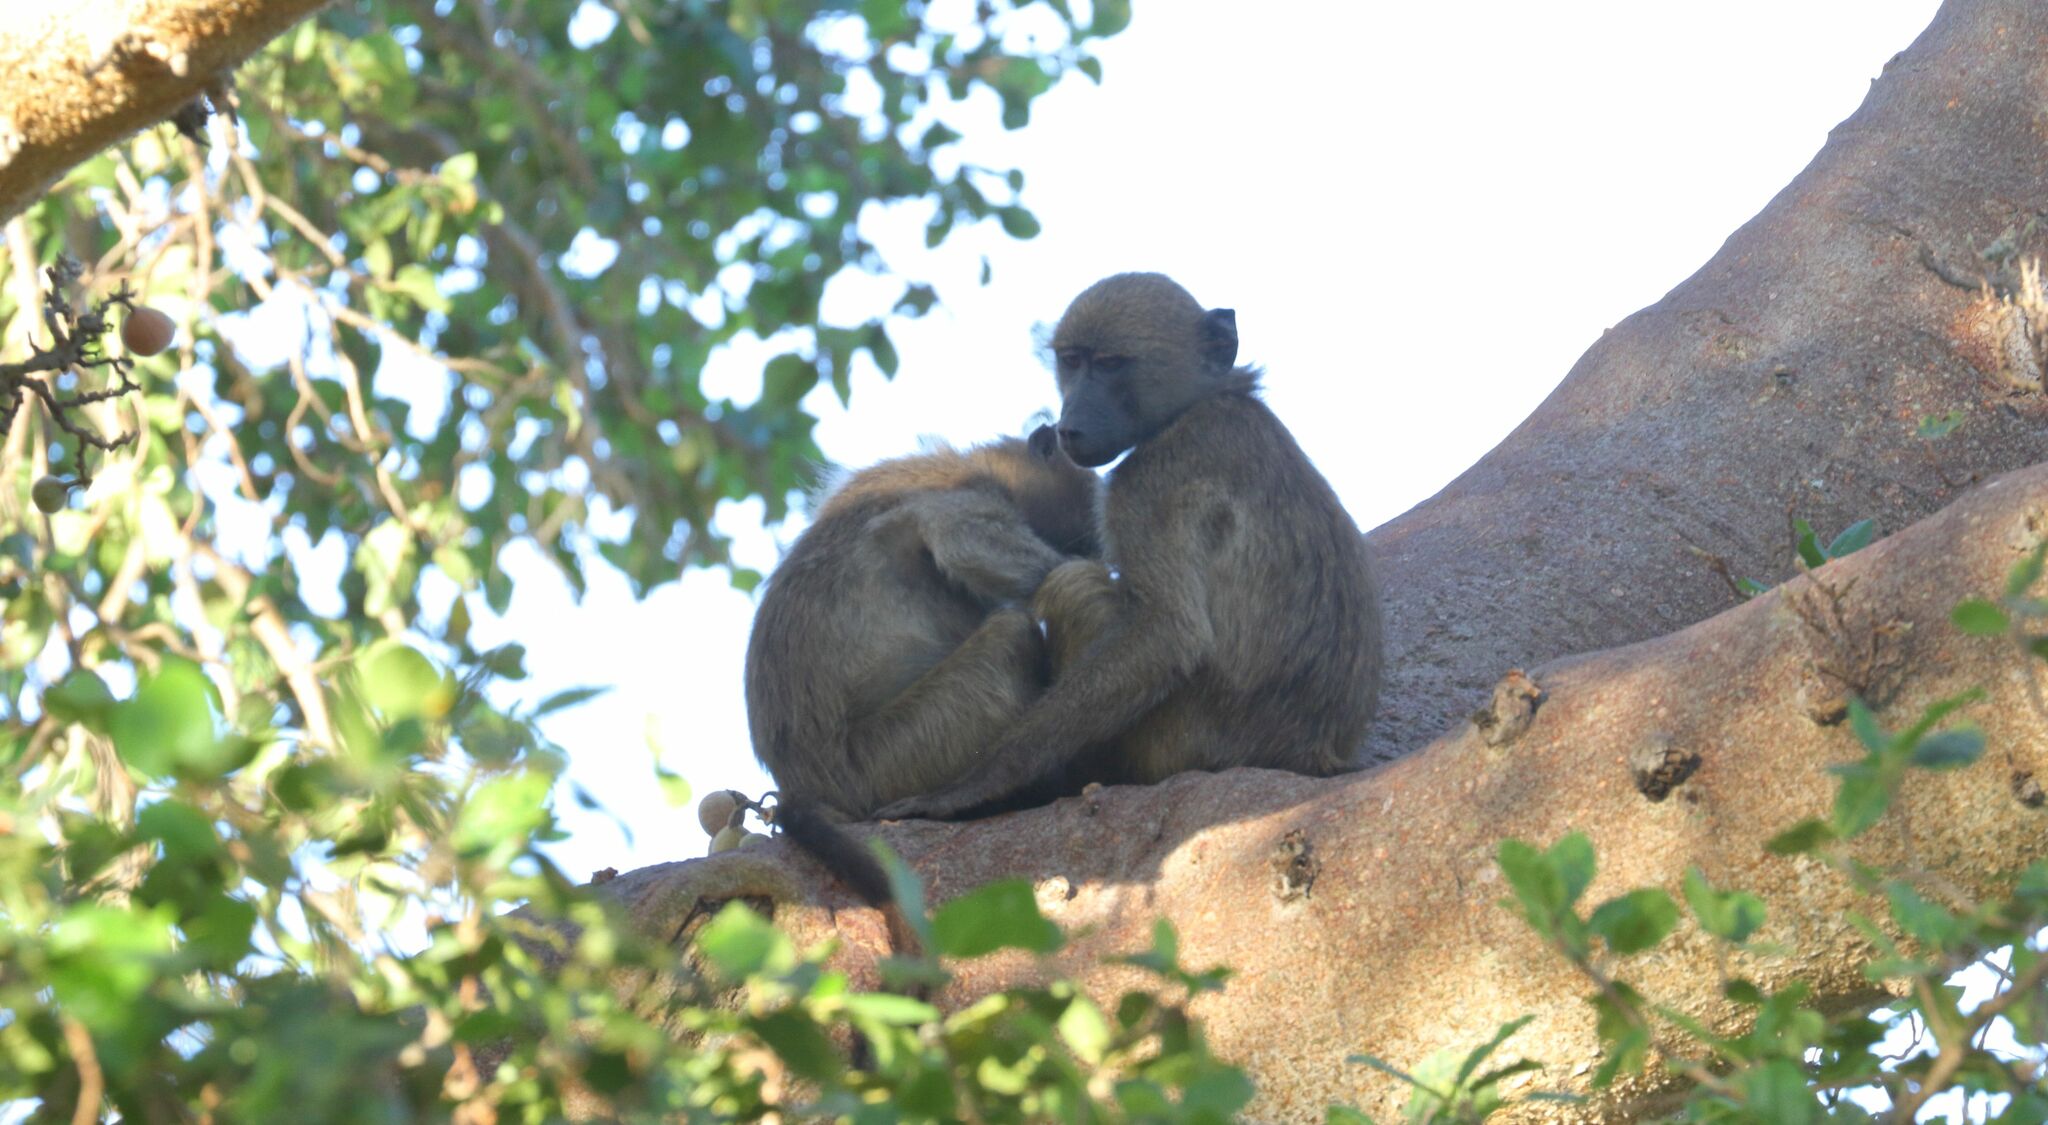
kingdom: Animalia
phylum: Chordata
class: Mammalia
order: Primates
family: Cercopithecidae
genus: Papio
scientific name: Papio ursinus
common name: Chacma baboon
